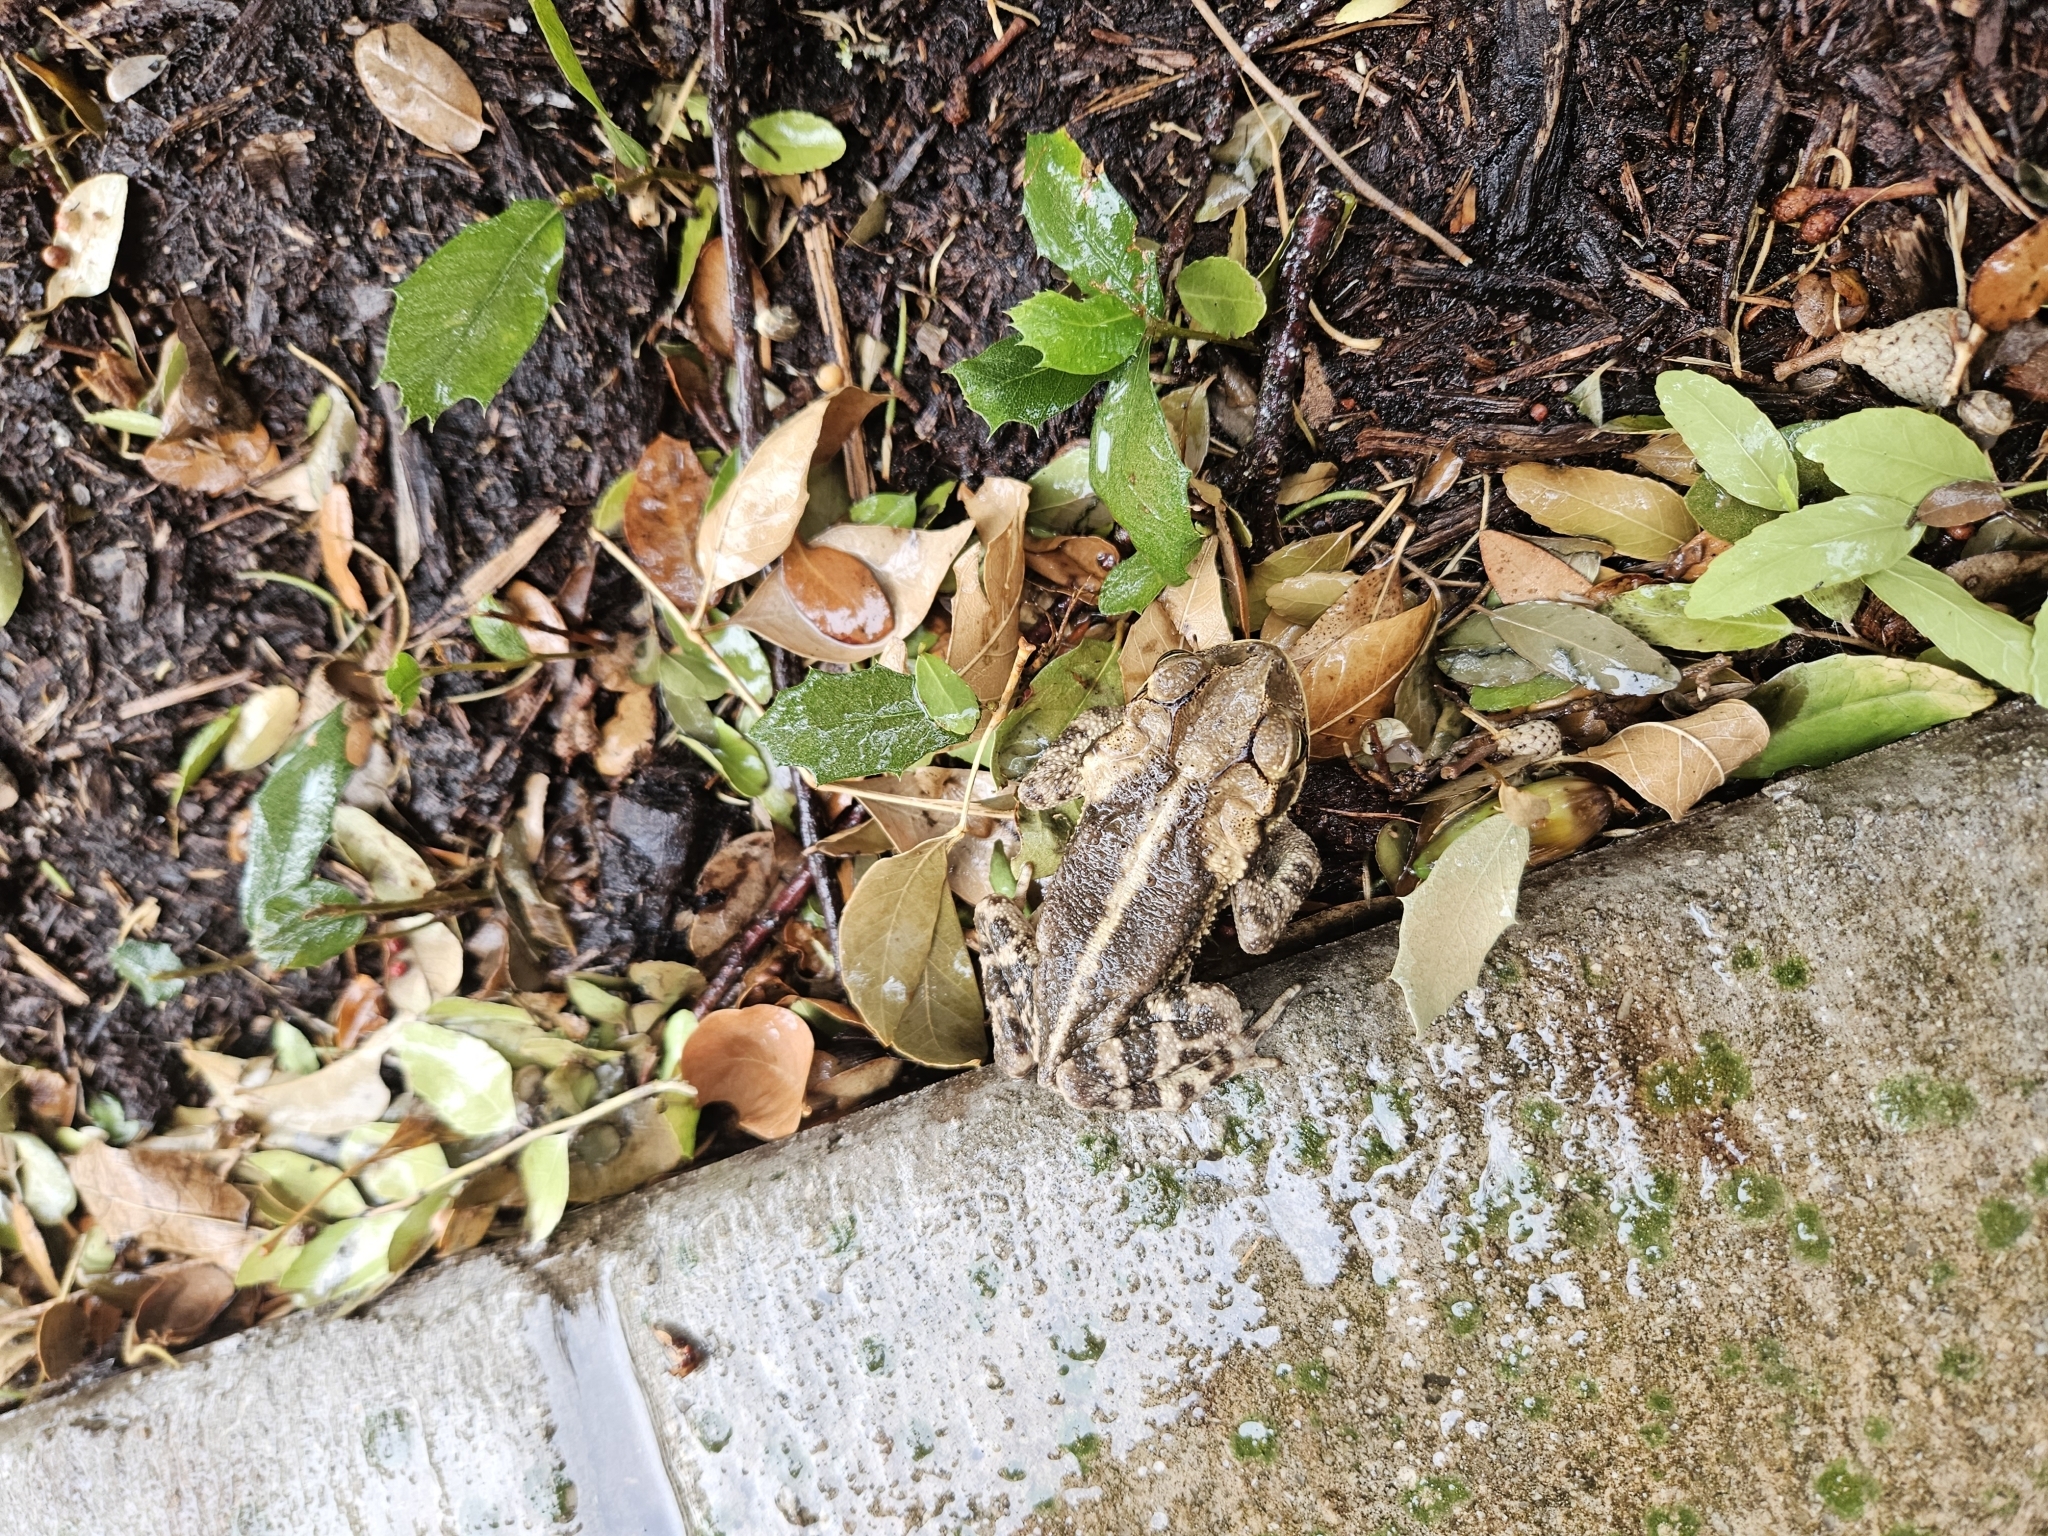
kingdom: Animalia
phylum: Chordata
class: Amphibia
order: Anura
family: Bufonidae
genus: Incilius
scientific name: Incilius nebulifer
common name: Gulf coast toad
